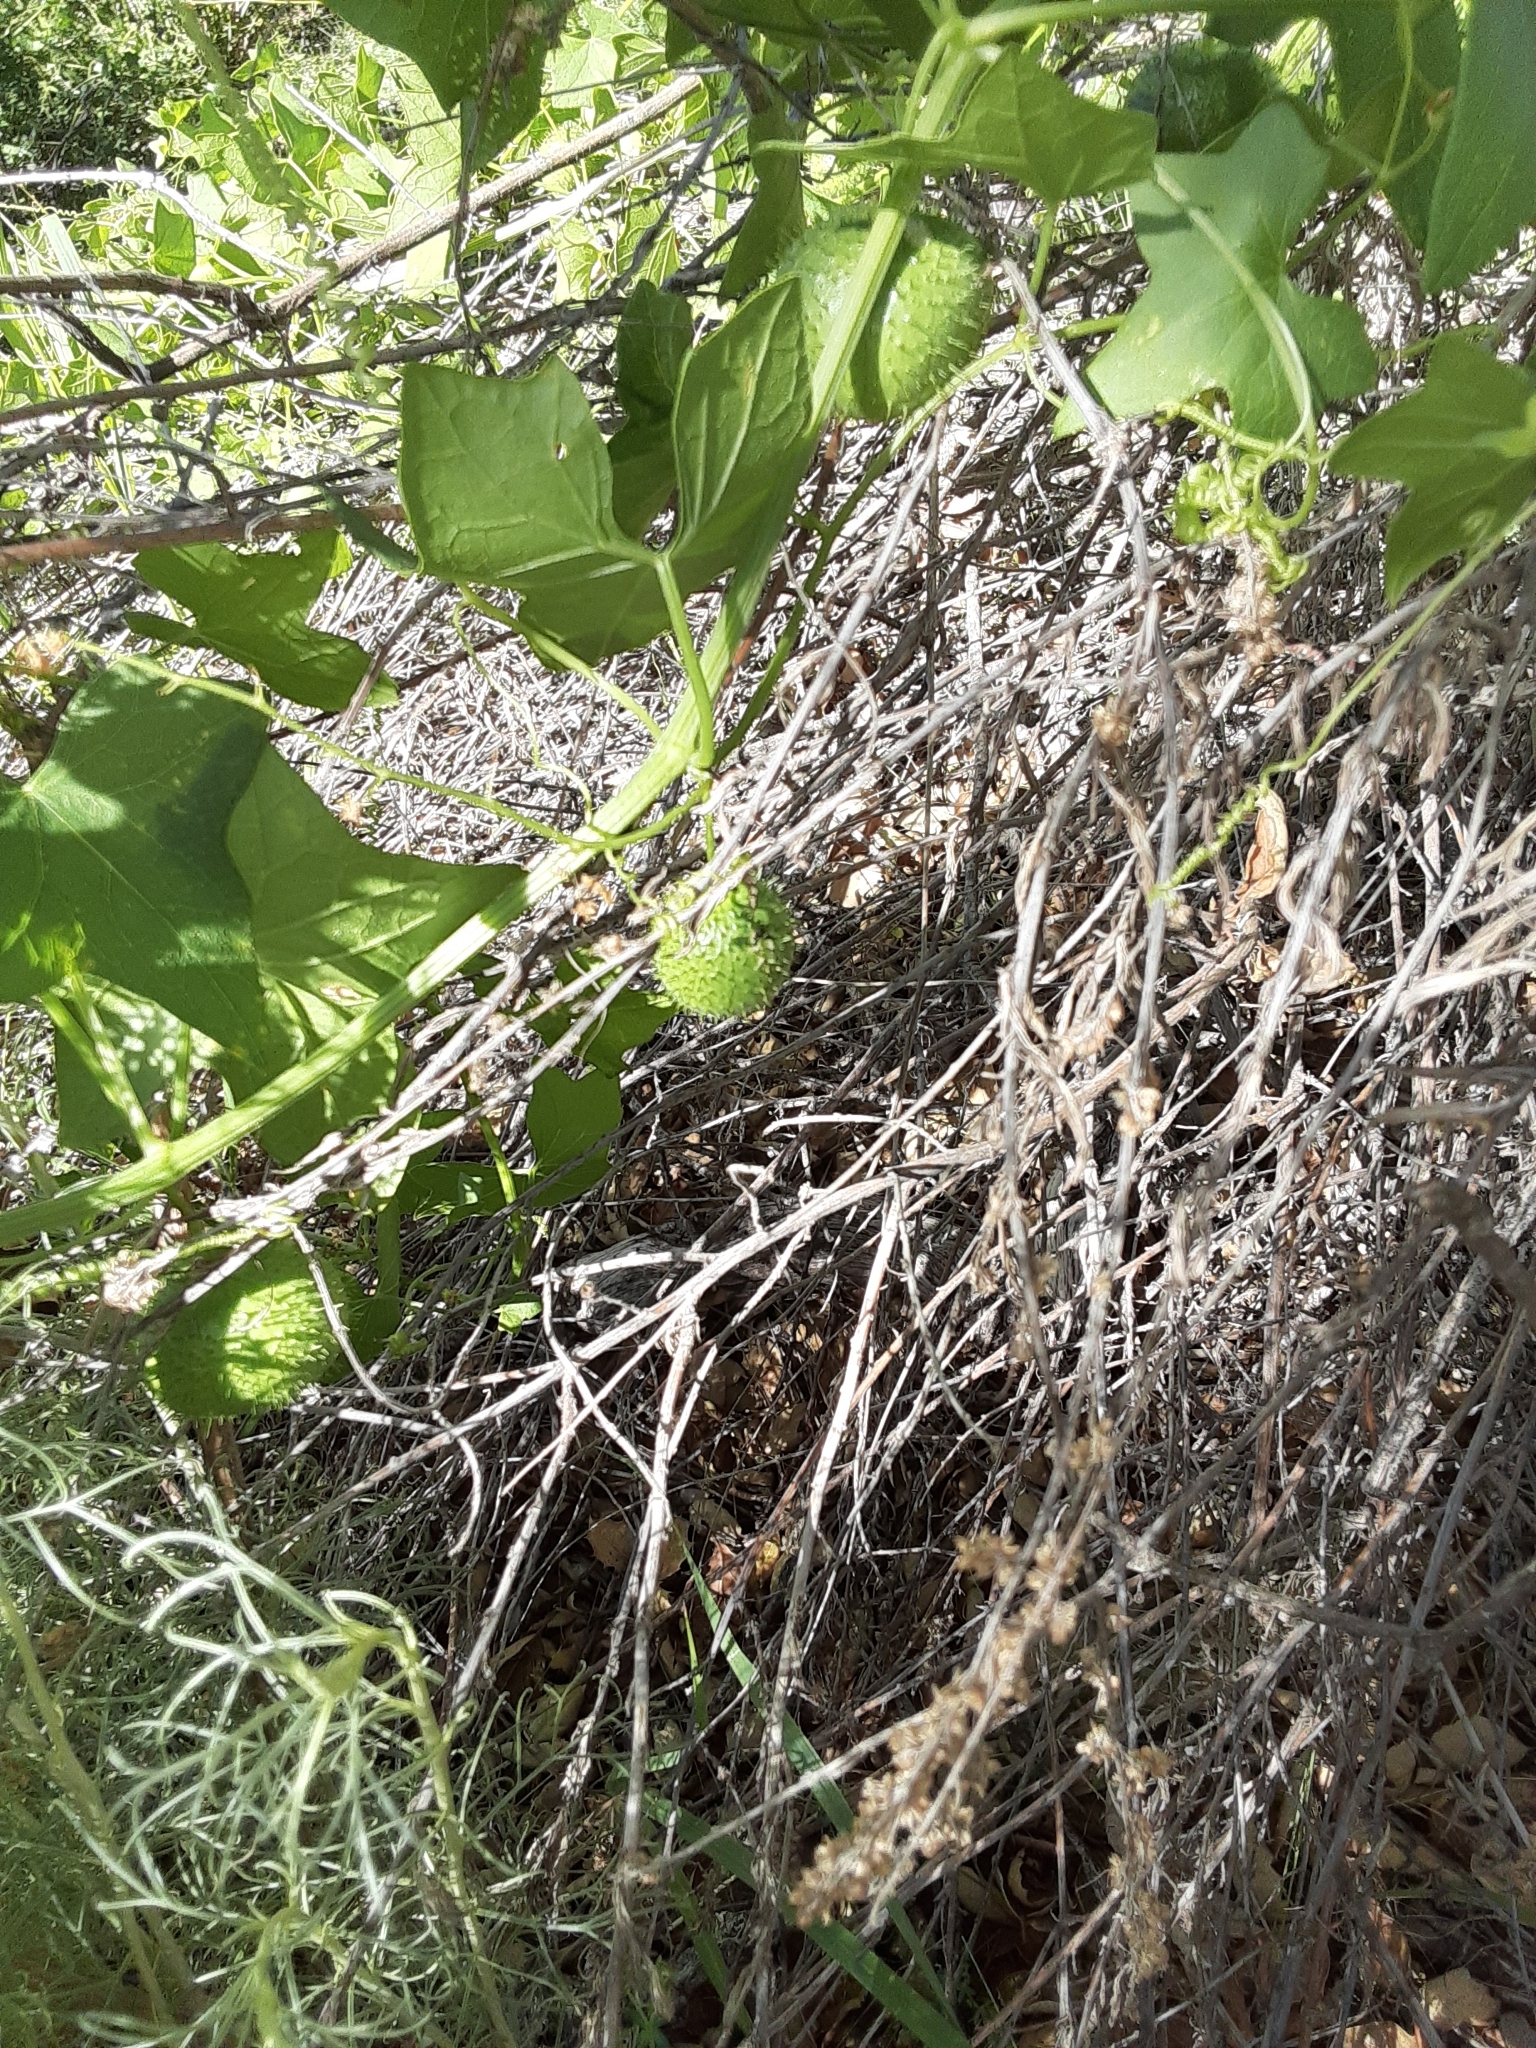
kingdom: Plantae
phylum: Tracheophyta
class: Magnoliopsida
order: Cucurbitales
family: Cucurbitaceae
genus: Marah
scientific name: Marah fabacea
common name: California manroot
